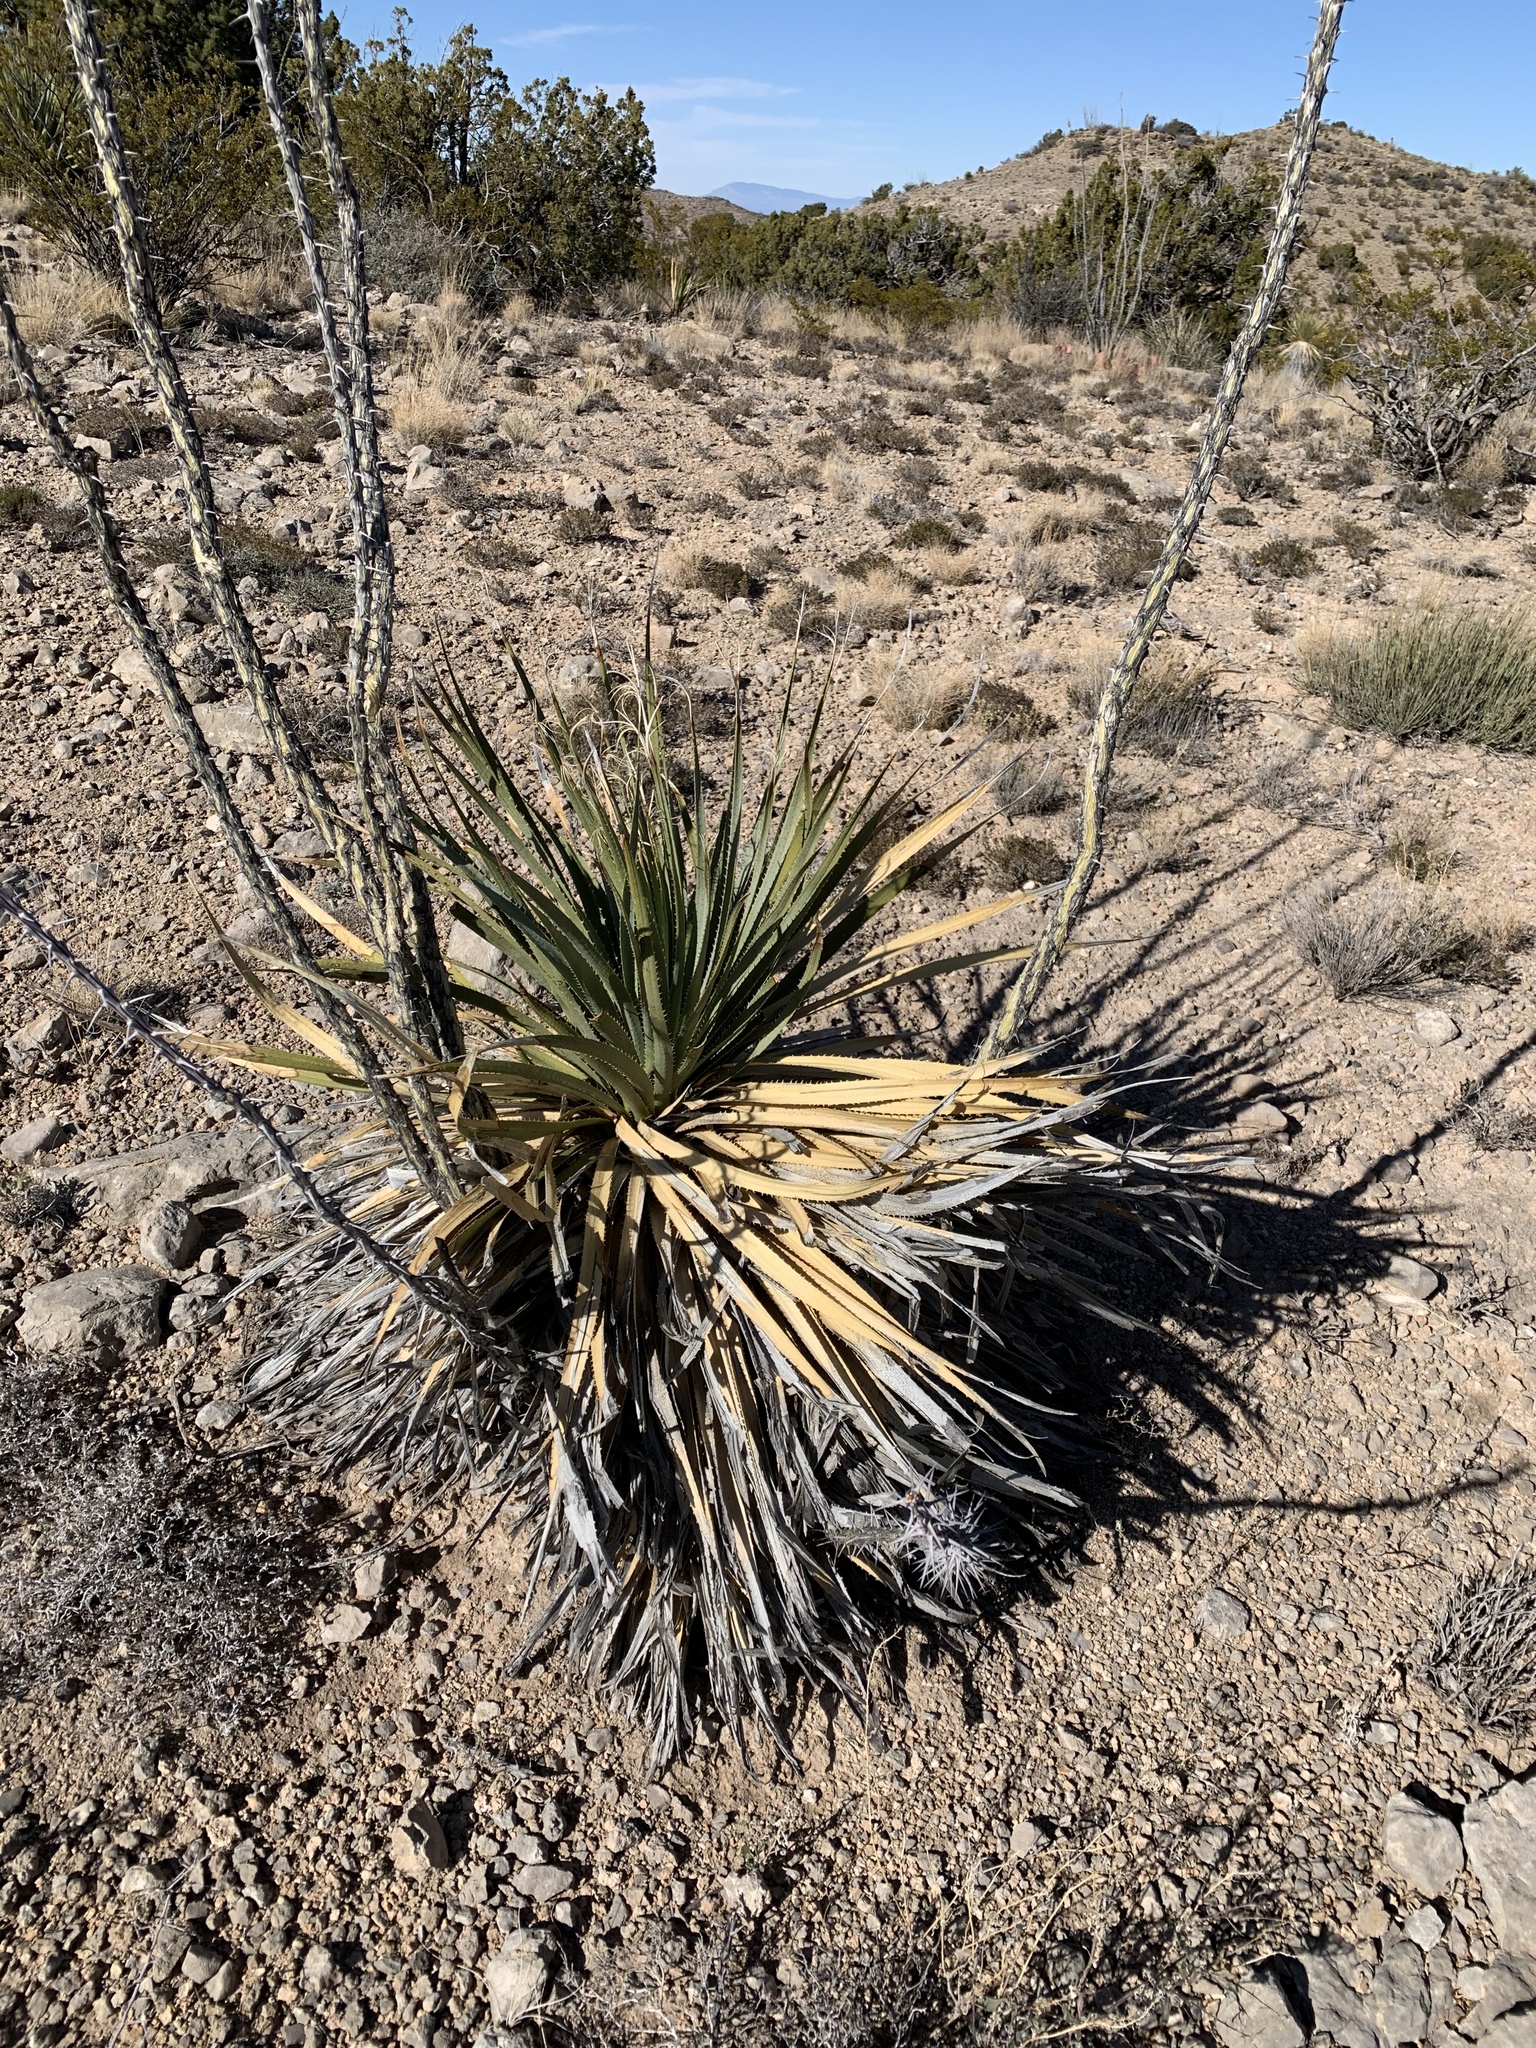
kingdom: Plantae
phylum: Tracheophyta
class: Liliopsida
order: Asparagales
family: Asparagaceae
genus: Dasylirion
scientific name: Dasylirion wheeleri
